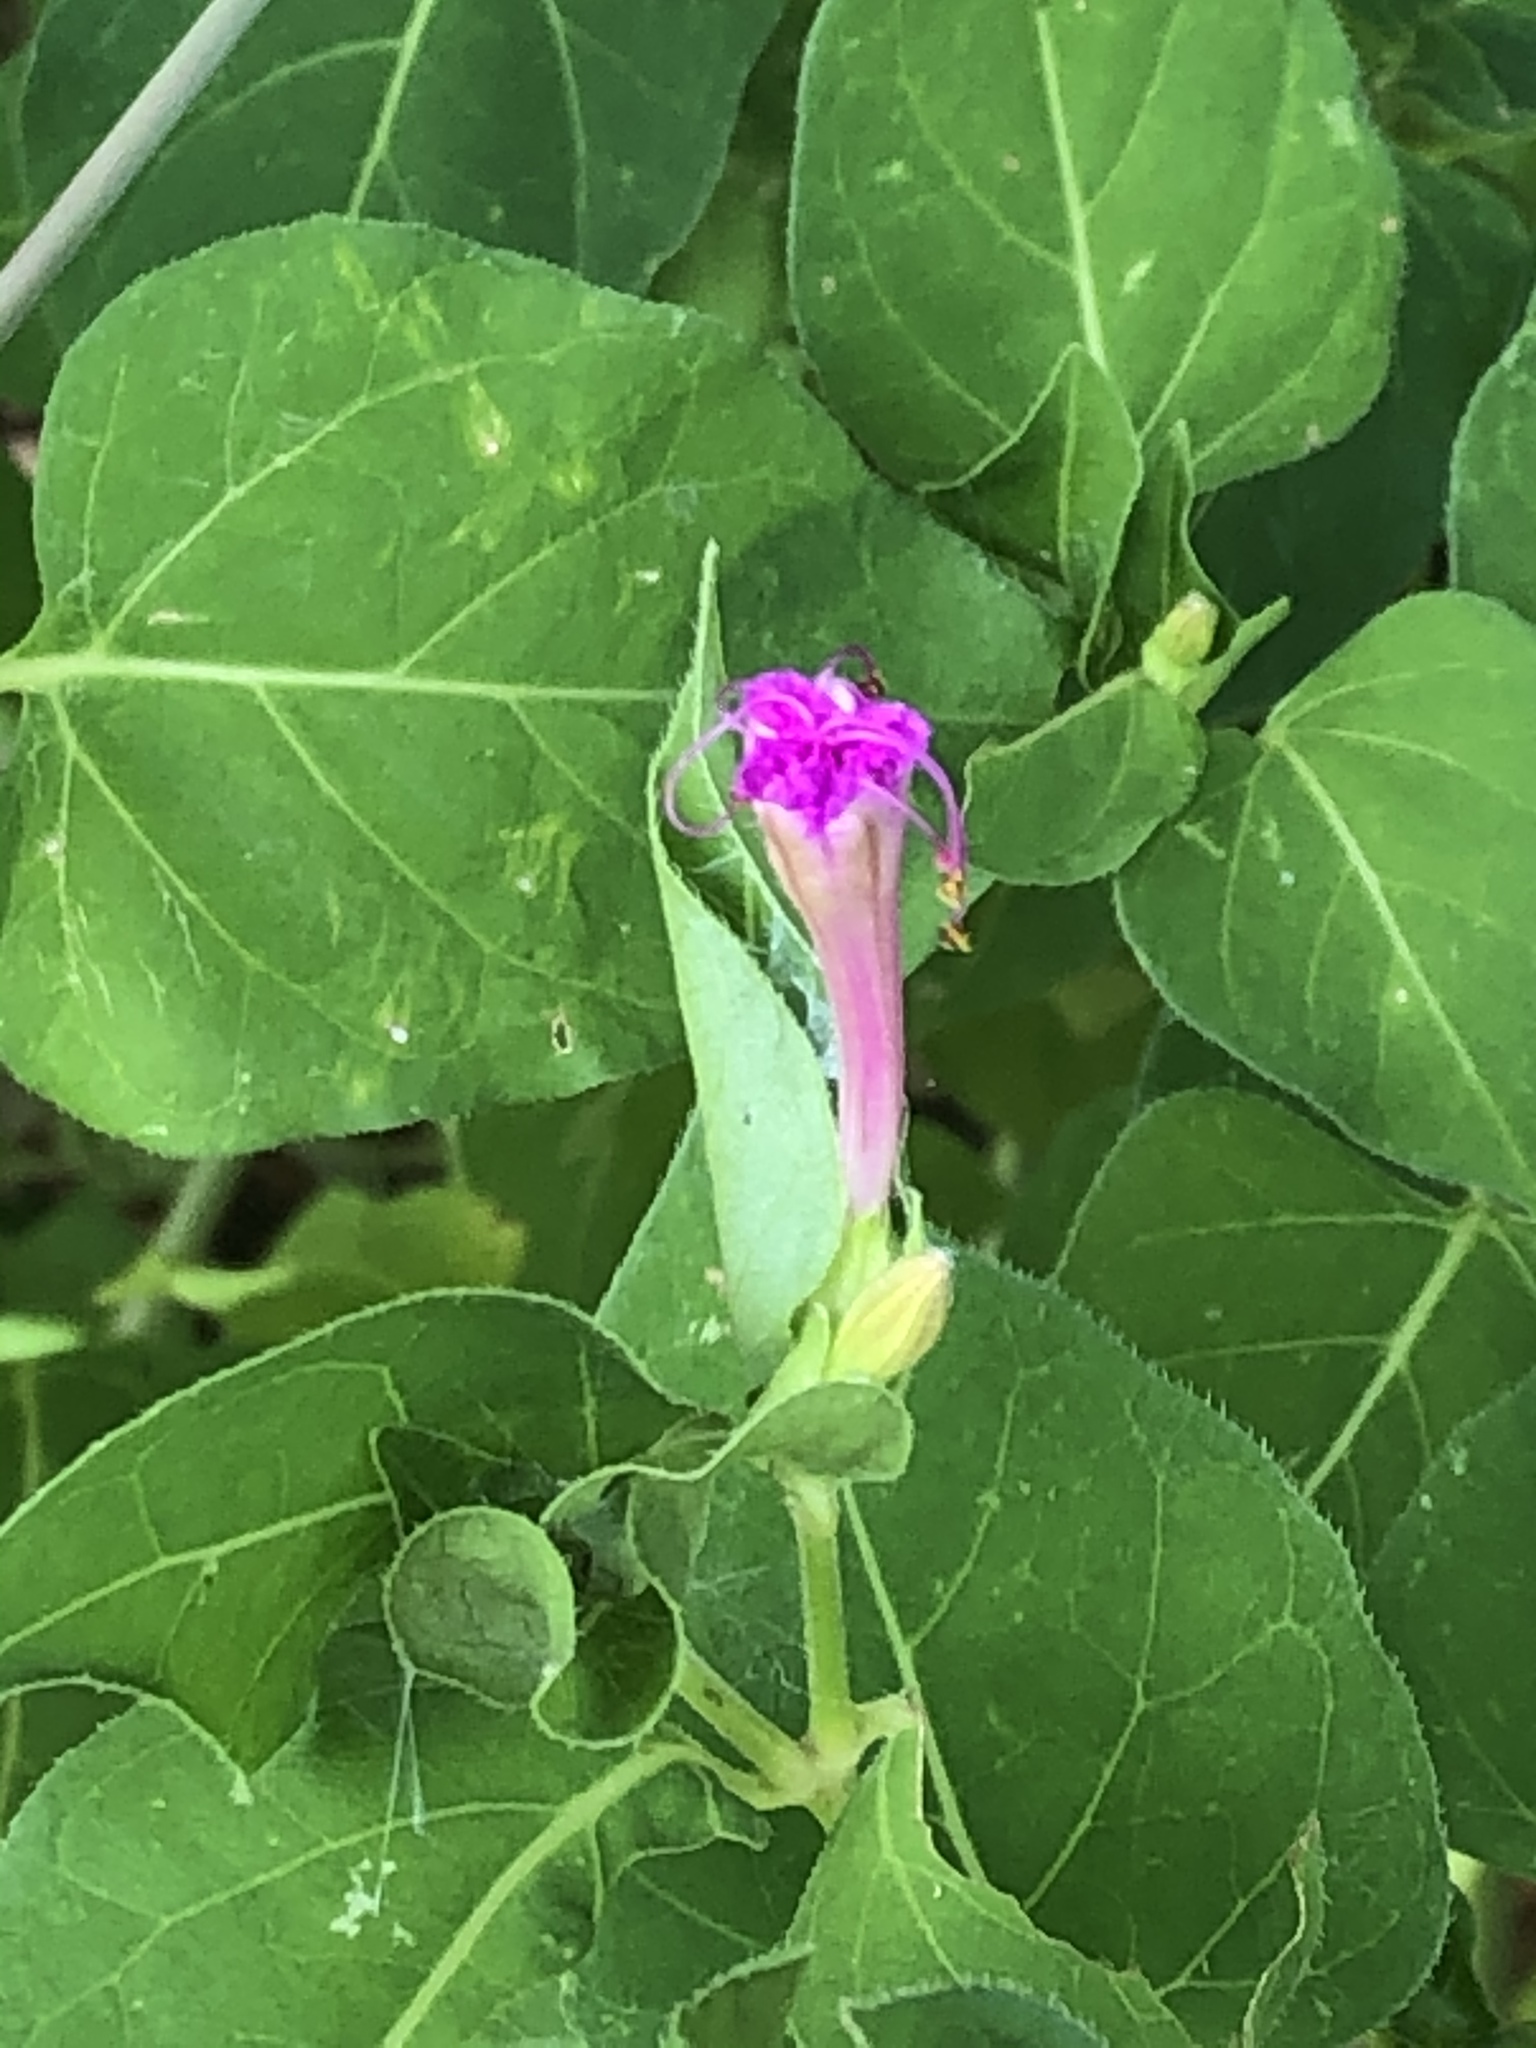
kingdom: Plantae
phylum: Tracheophyta
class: Magnoliopsida
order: Caryophyllales
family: Nyctaginaceae
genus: Mirabilis
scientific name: Mirabilis jalapa
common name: Marvel-of-peru
